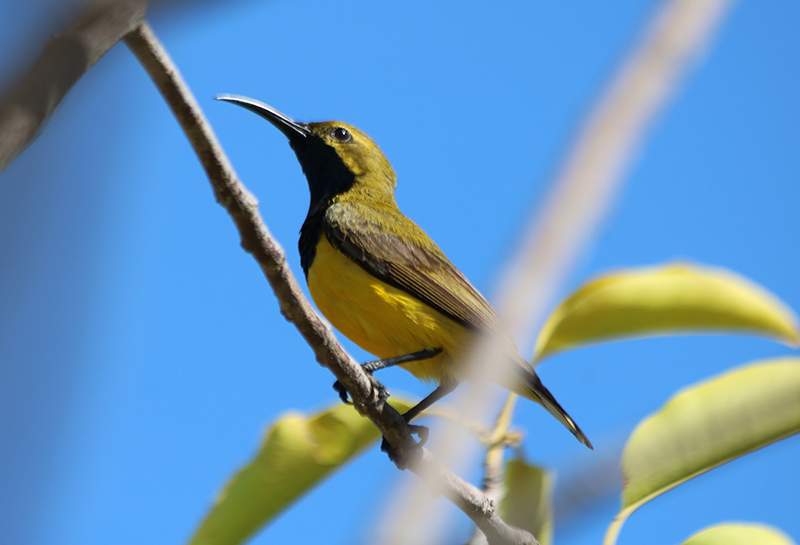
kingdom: Animalia
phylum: Chordata
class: Aves
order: Passeriformes
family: Nectariniidae
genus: Cinnyris
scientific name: Cinnyris
